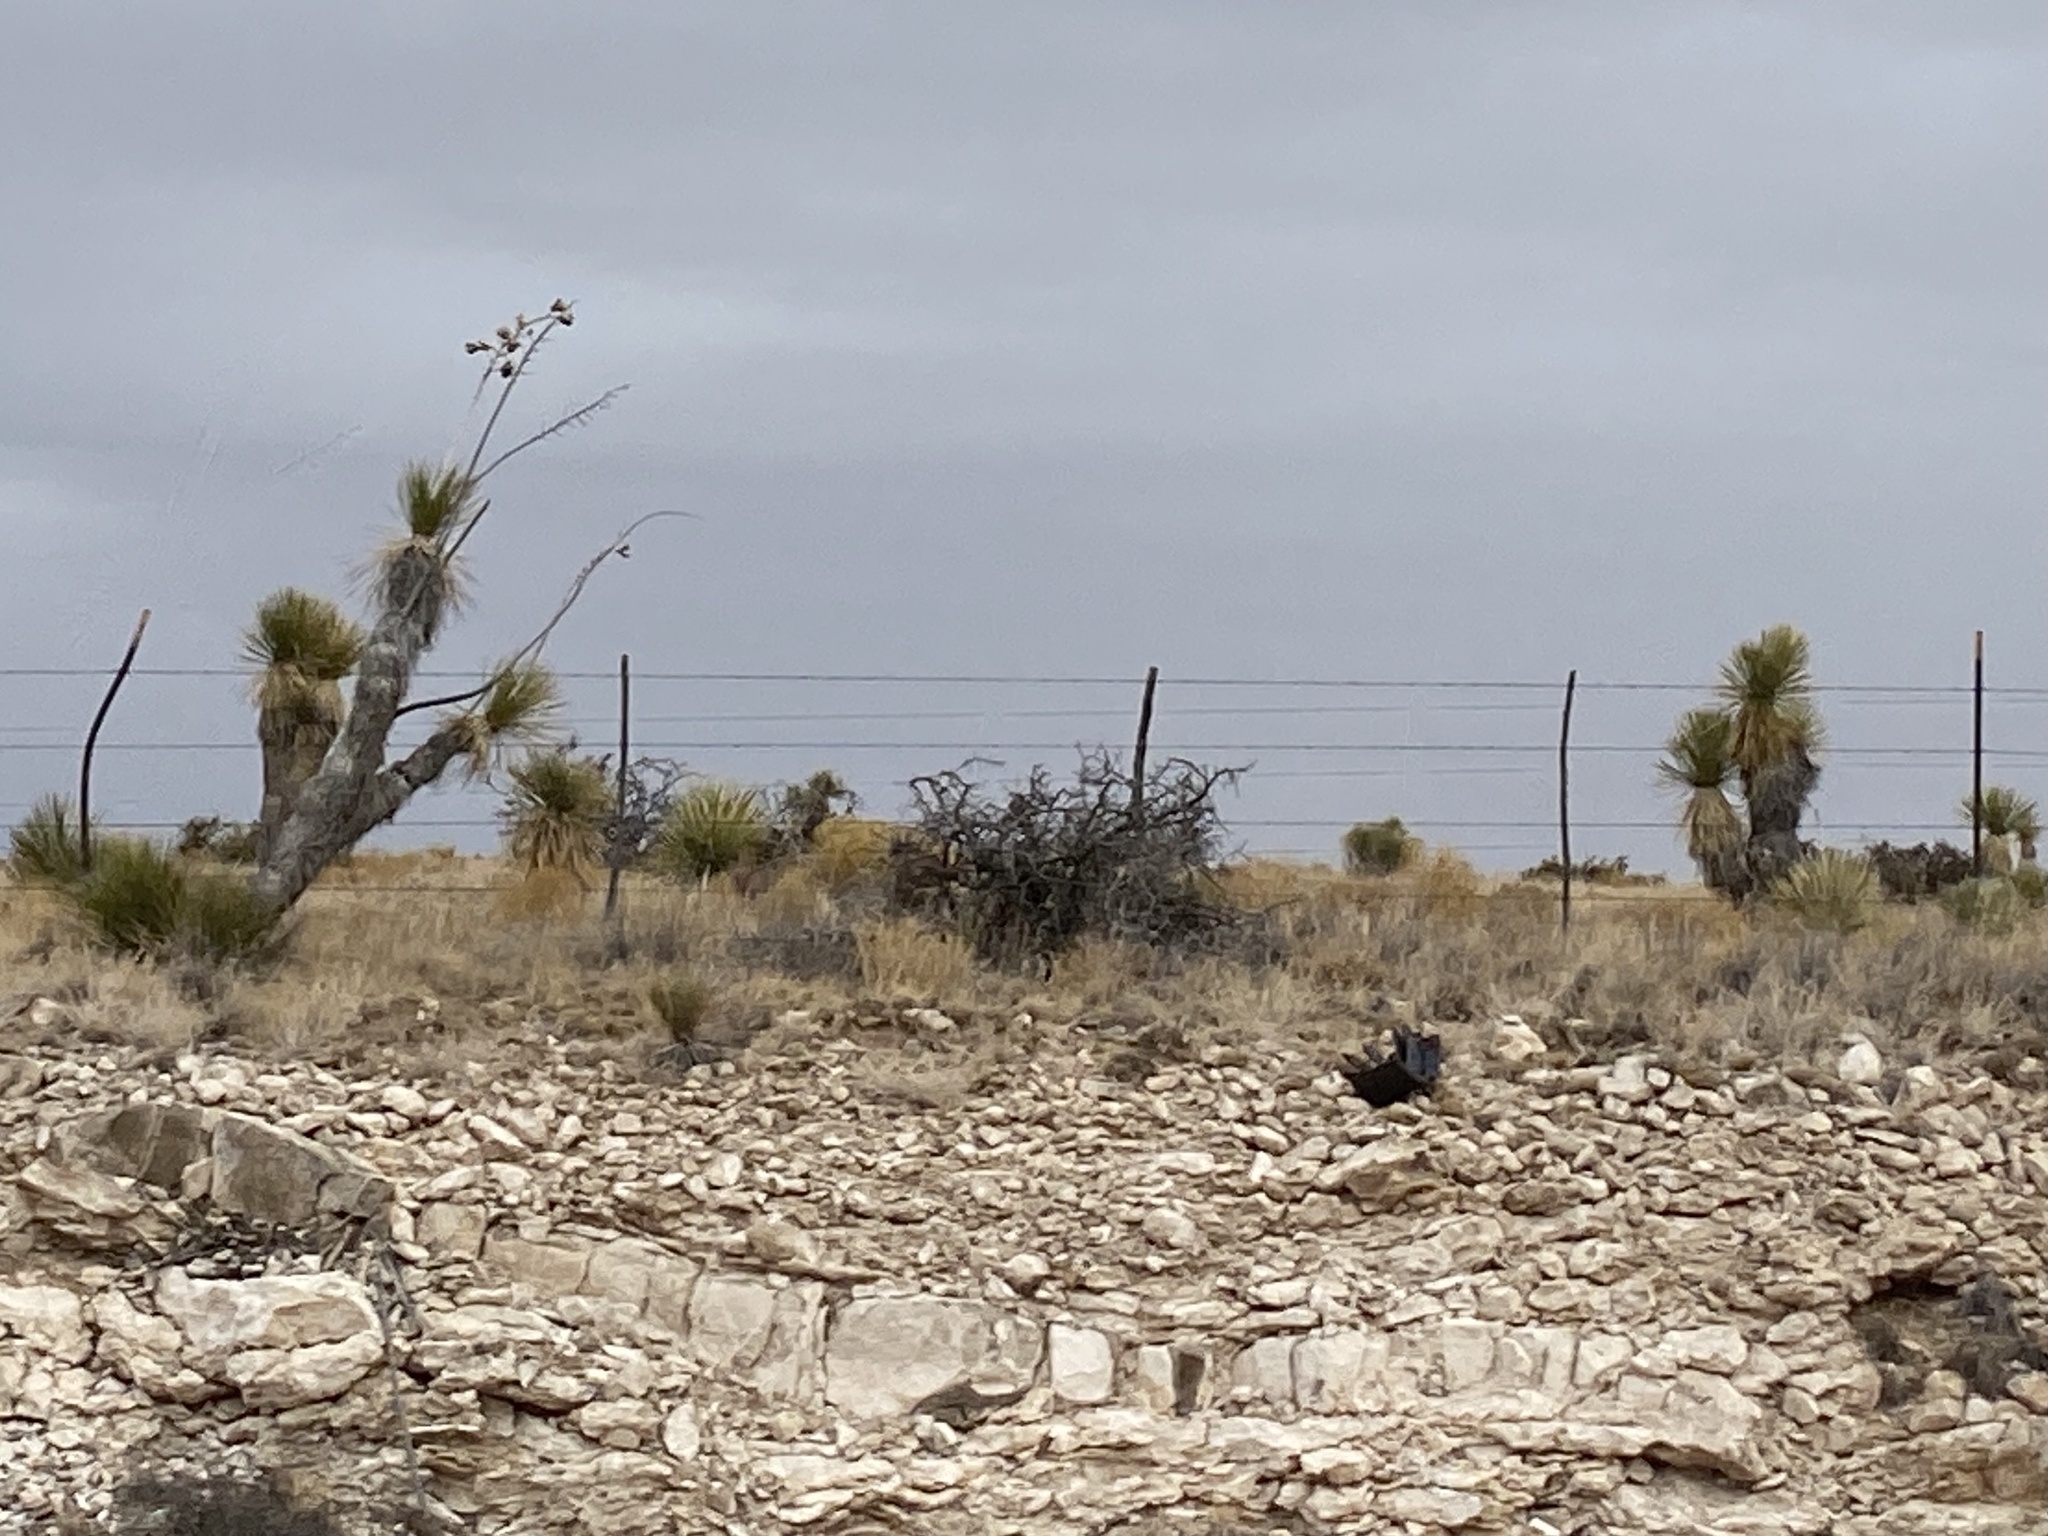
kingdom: Plantae
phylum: Tracheophyta
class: Liliopsida
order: Asparagales
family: Asparagaceae
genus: Yucca
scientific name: Yucca elata
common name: Palmella
